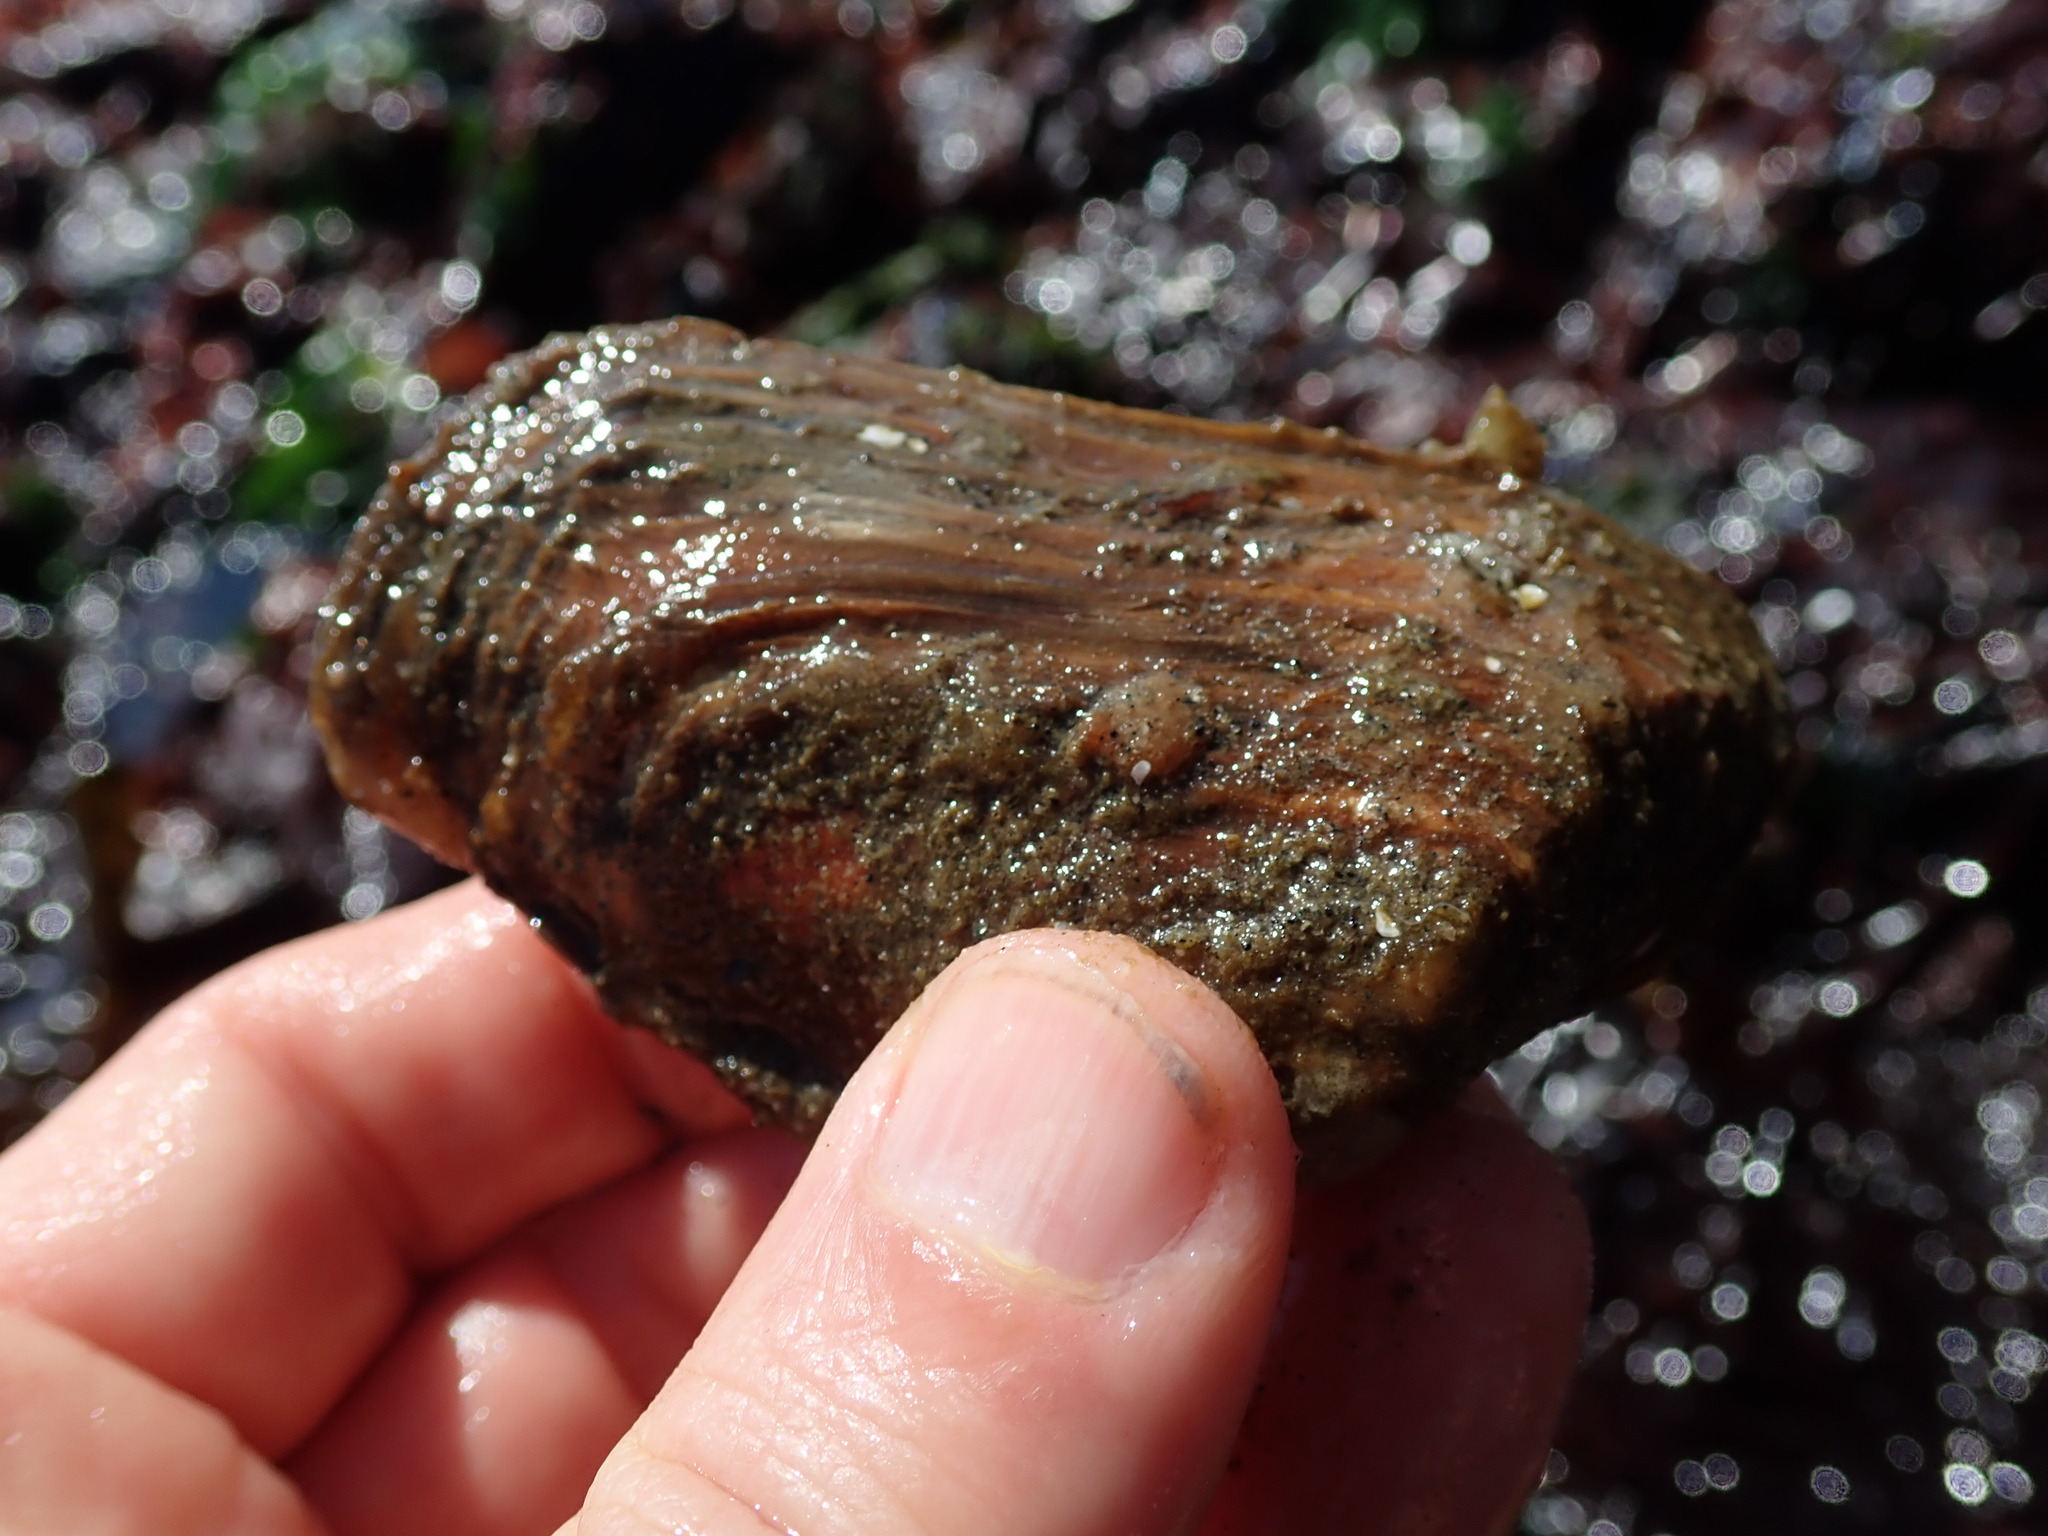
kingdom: Animalia
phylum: Mollusca
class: Bivalvia
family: Lyonsiidae
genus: Entodesma
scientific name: Entodesma navicula
